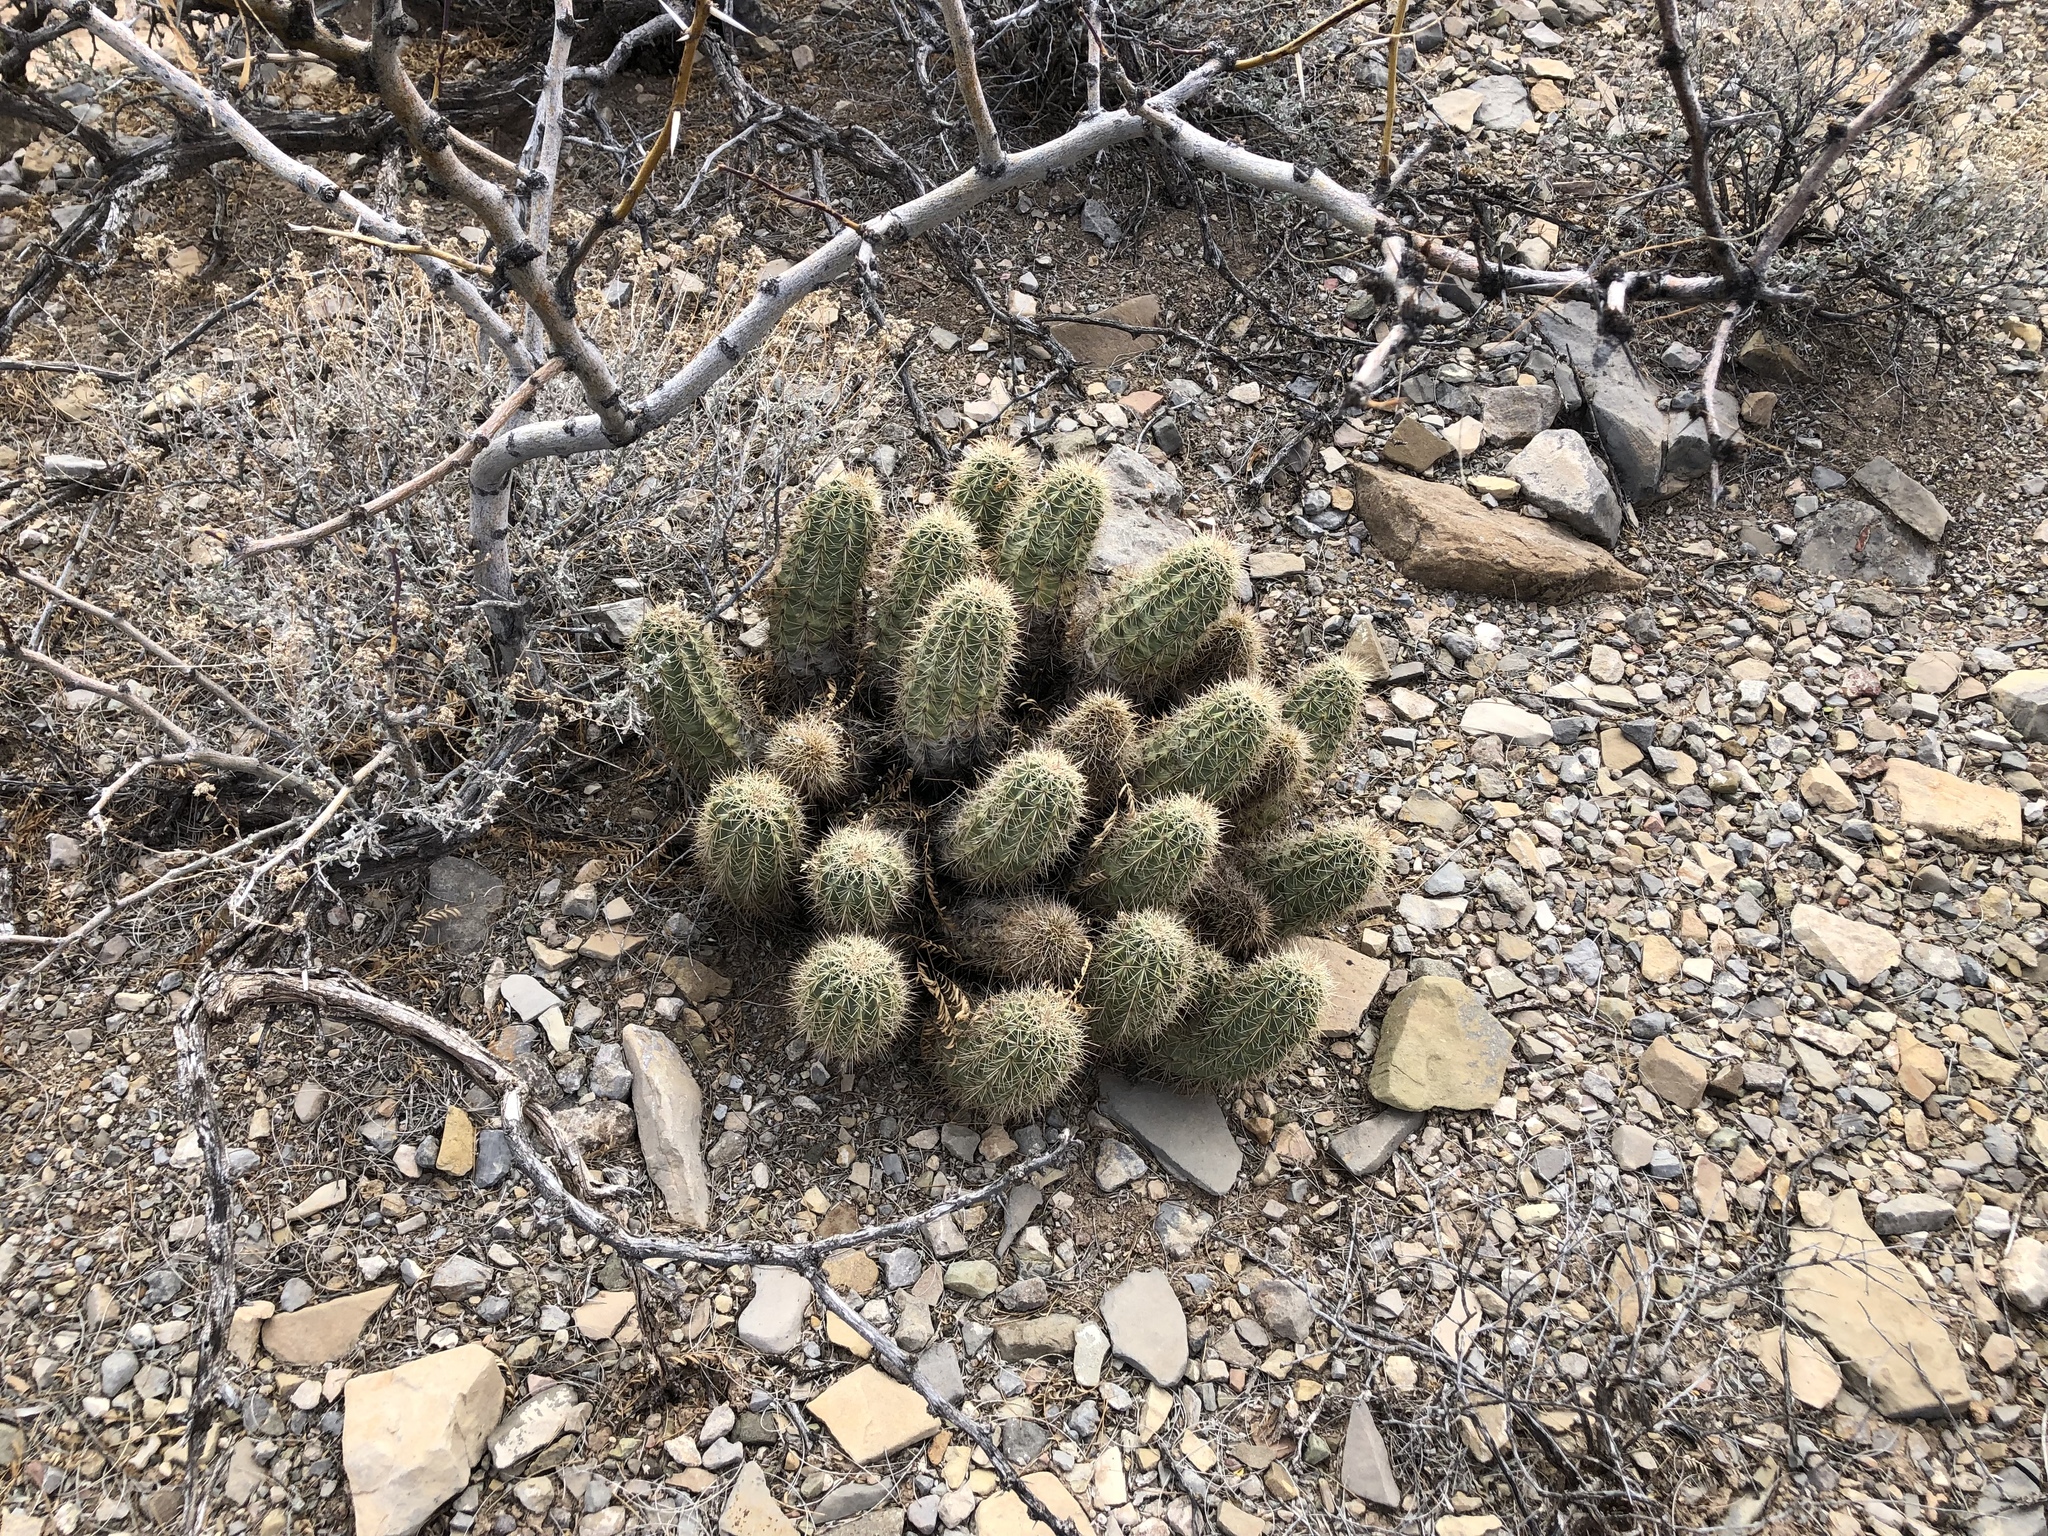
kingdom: Plantae
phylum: Tracheophyta
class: Magnoliopsida
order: Caryophyllales
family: Cactaceae
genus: Echinocereus
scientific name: Echinocereus coccineus
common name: Scarlet hedgehog cactus
